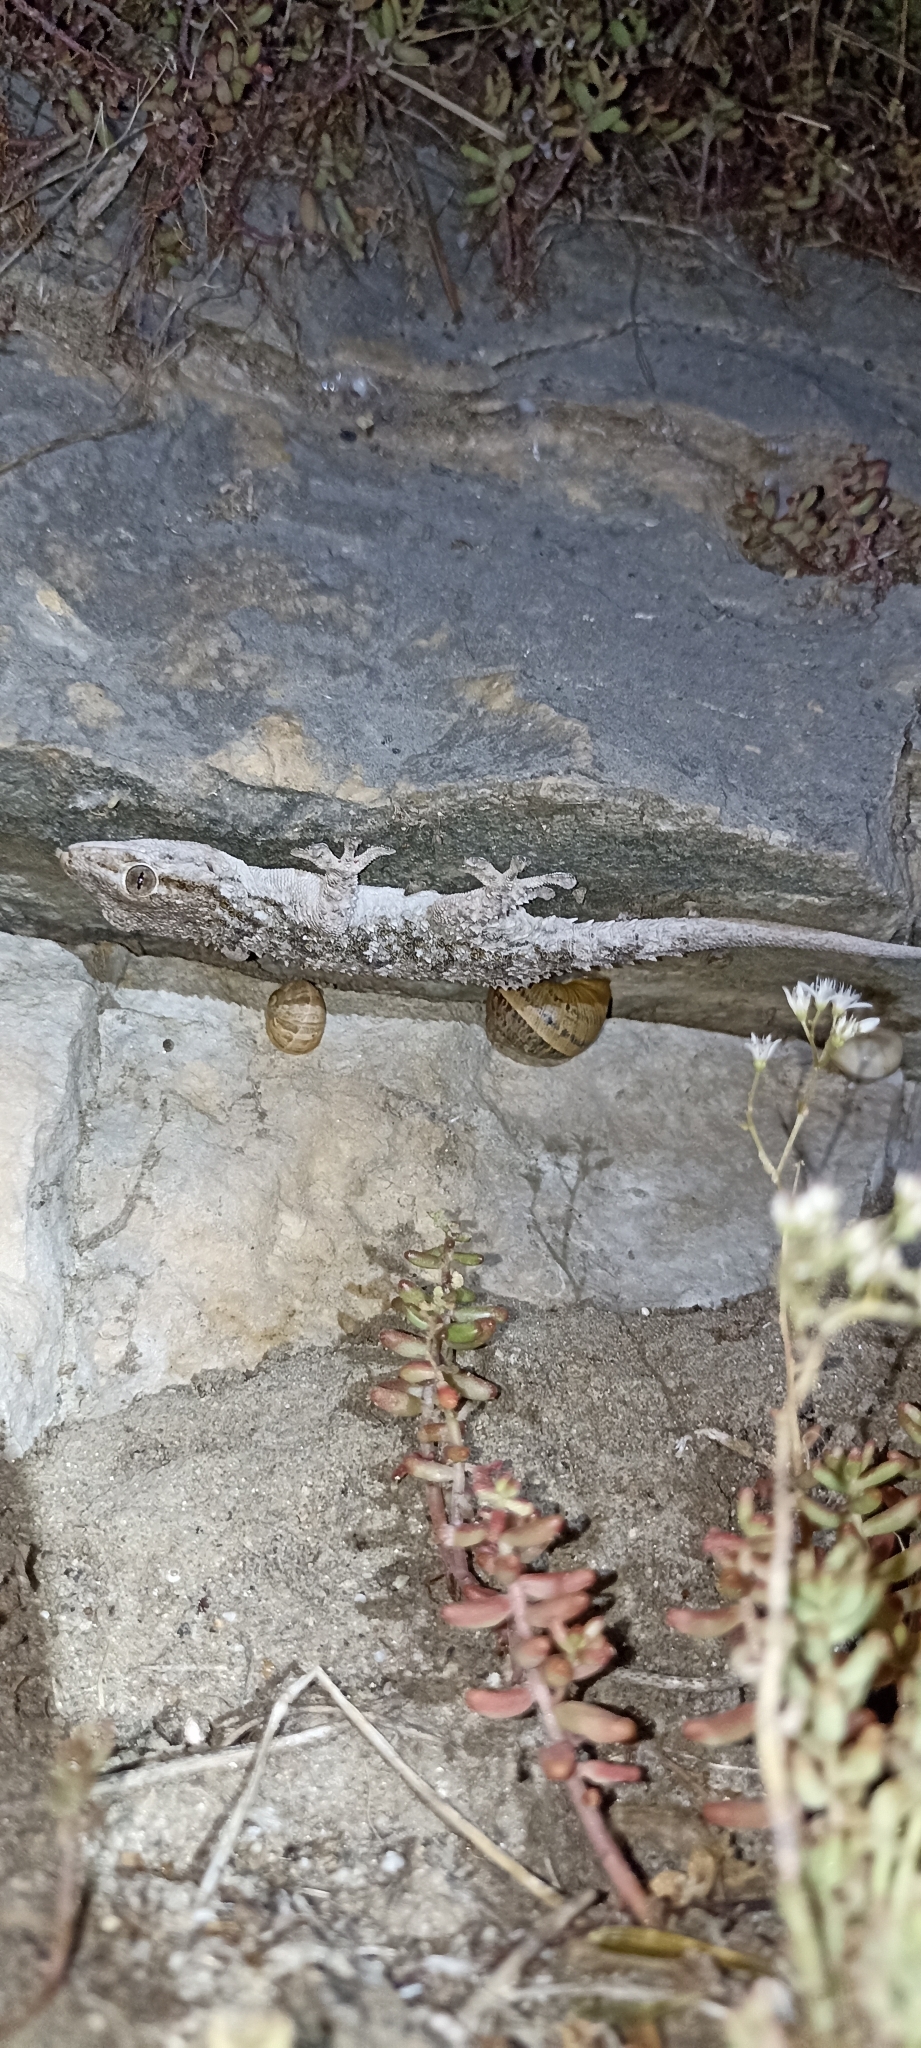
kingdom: Animalia
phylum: Chordata
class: Squamata
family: Phyllodactylidae
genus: Tarentola
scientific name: Tarentola mauritanica
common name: Moorish gecko
